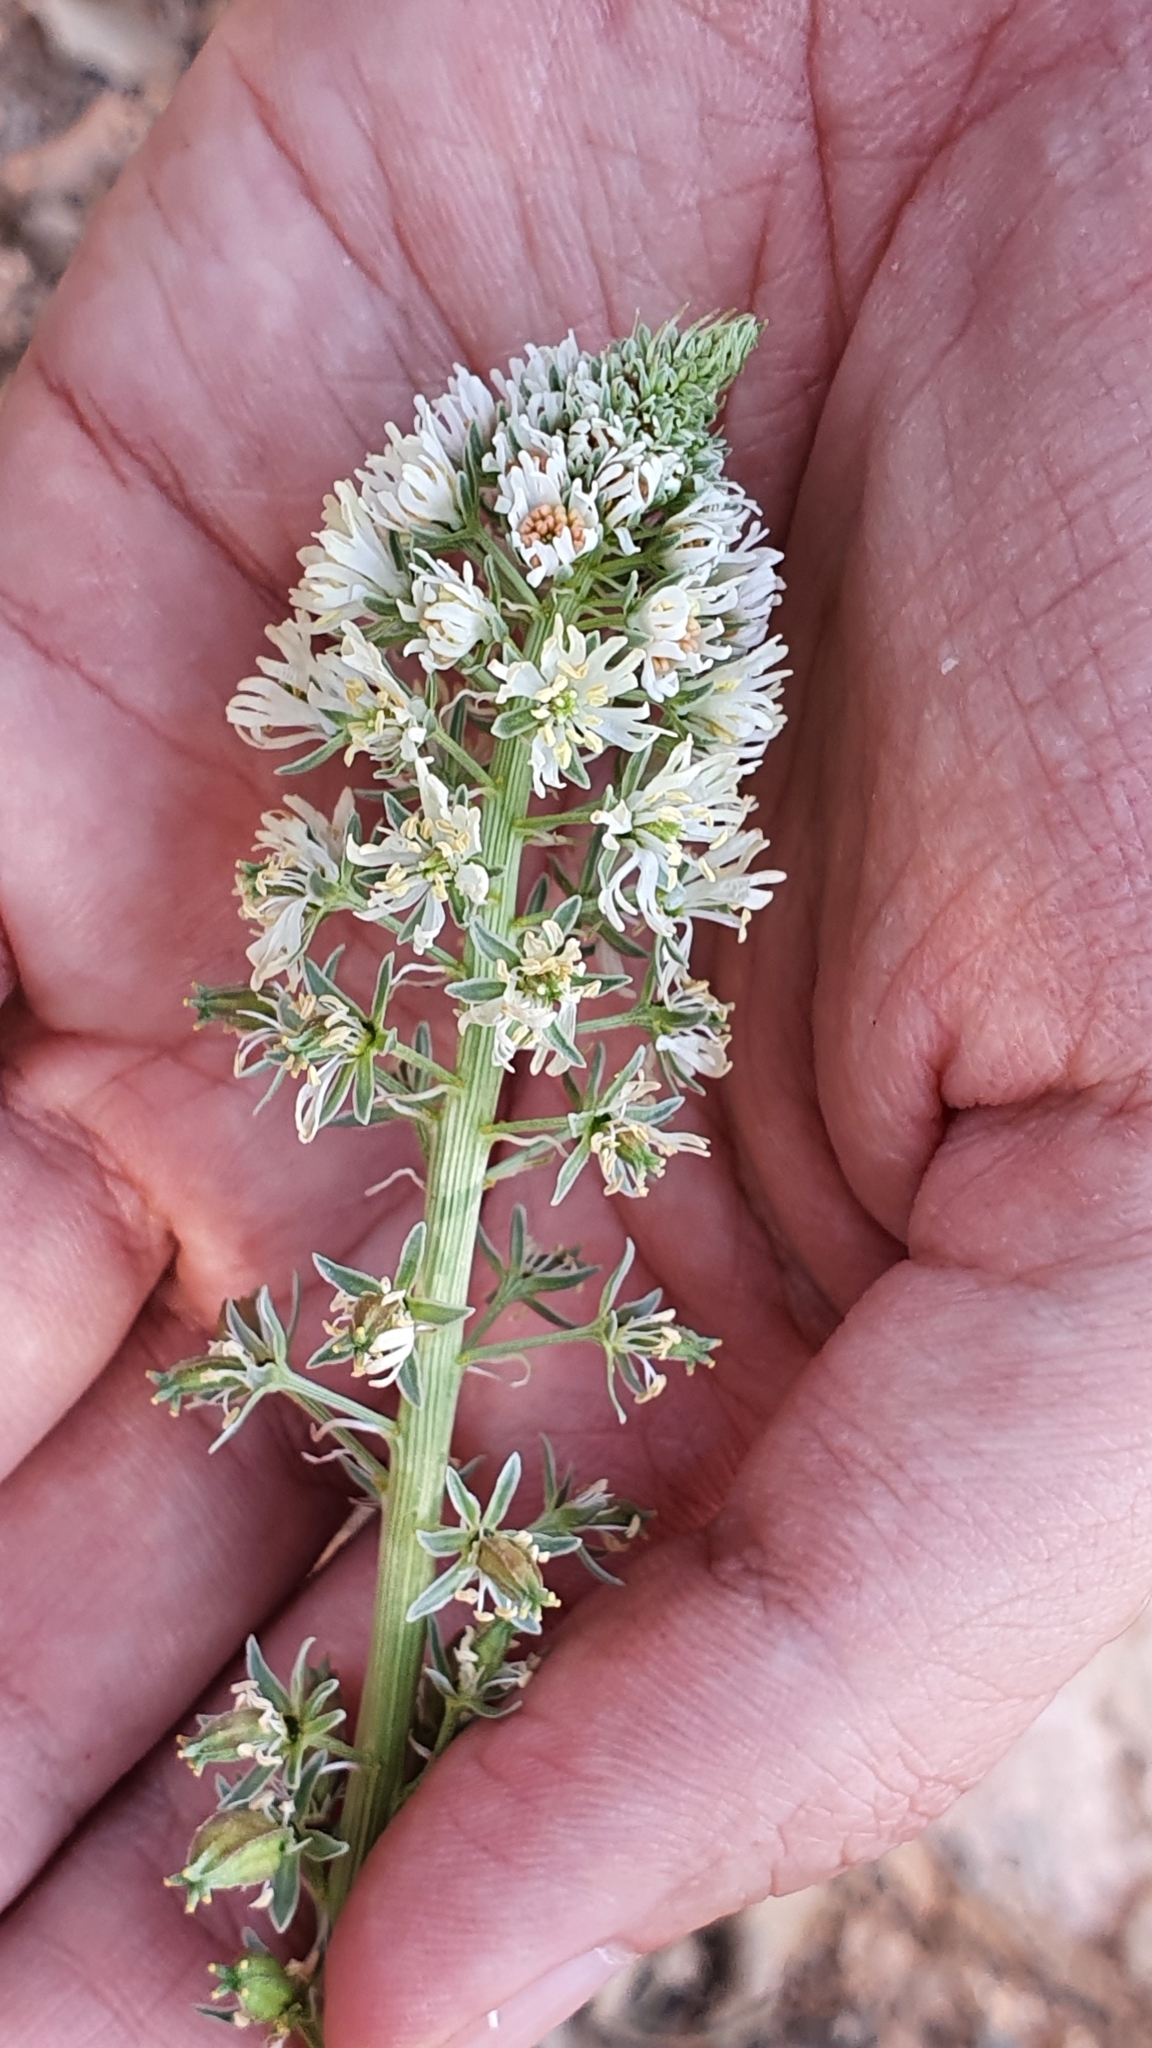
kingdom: Plantae
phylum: Tracheophyta
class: Magnoliopsida
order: Brassicales
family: Resedaceae
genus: Reseda
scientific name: Reseda alba
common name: White mignonette
